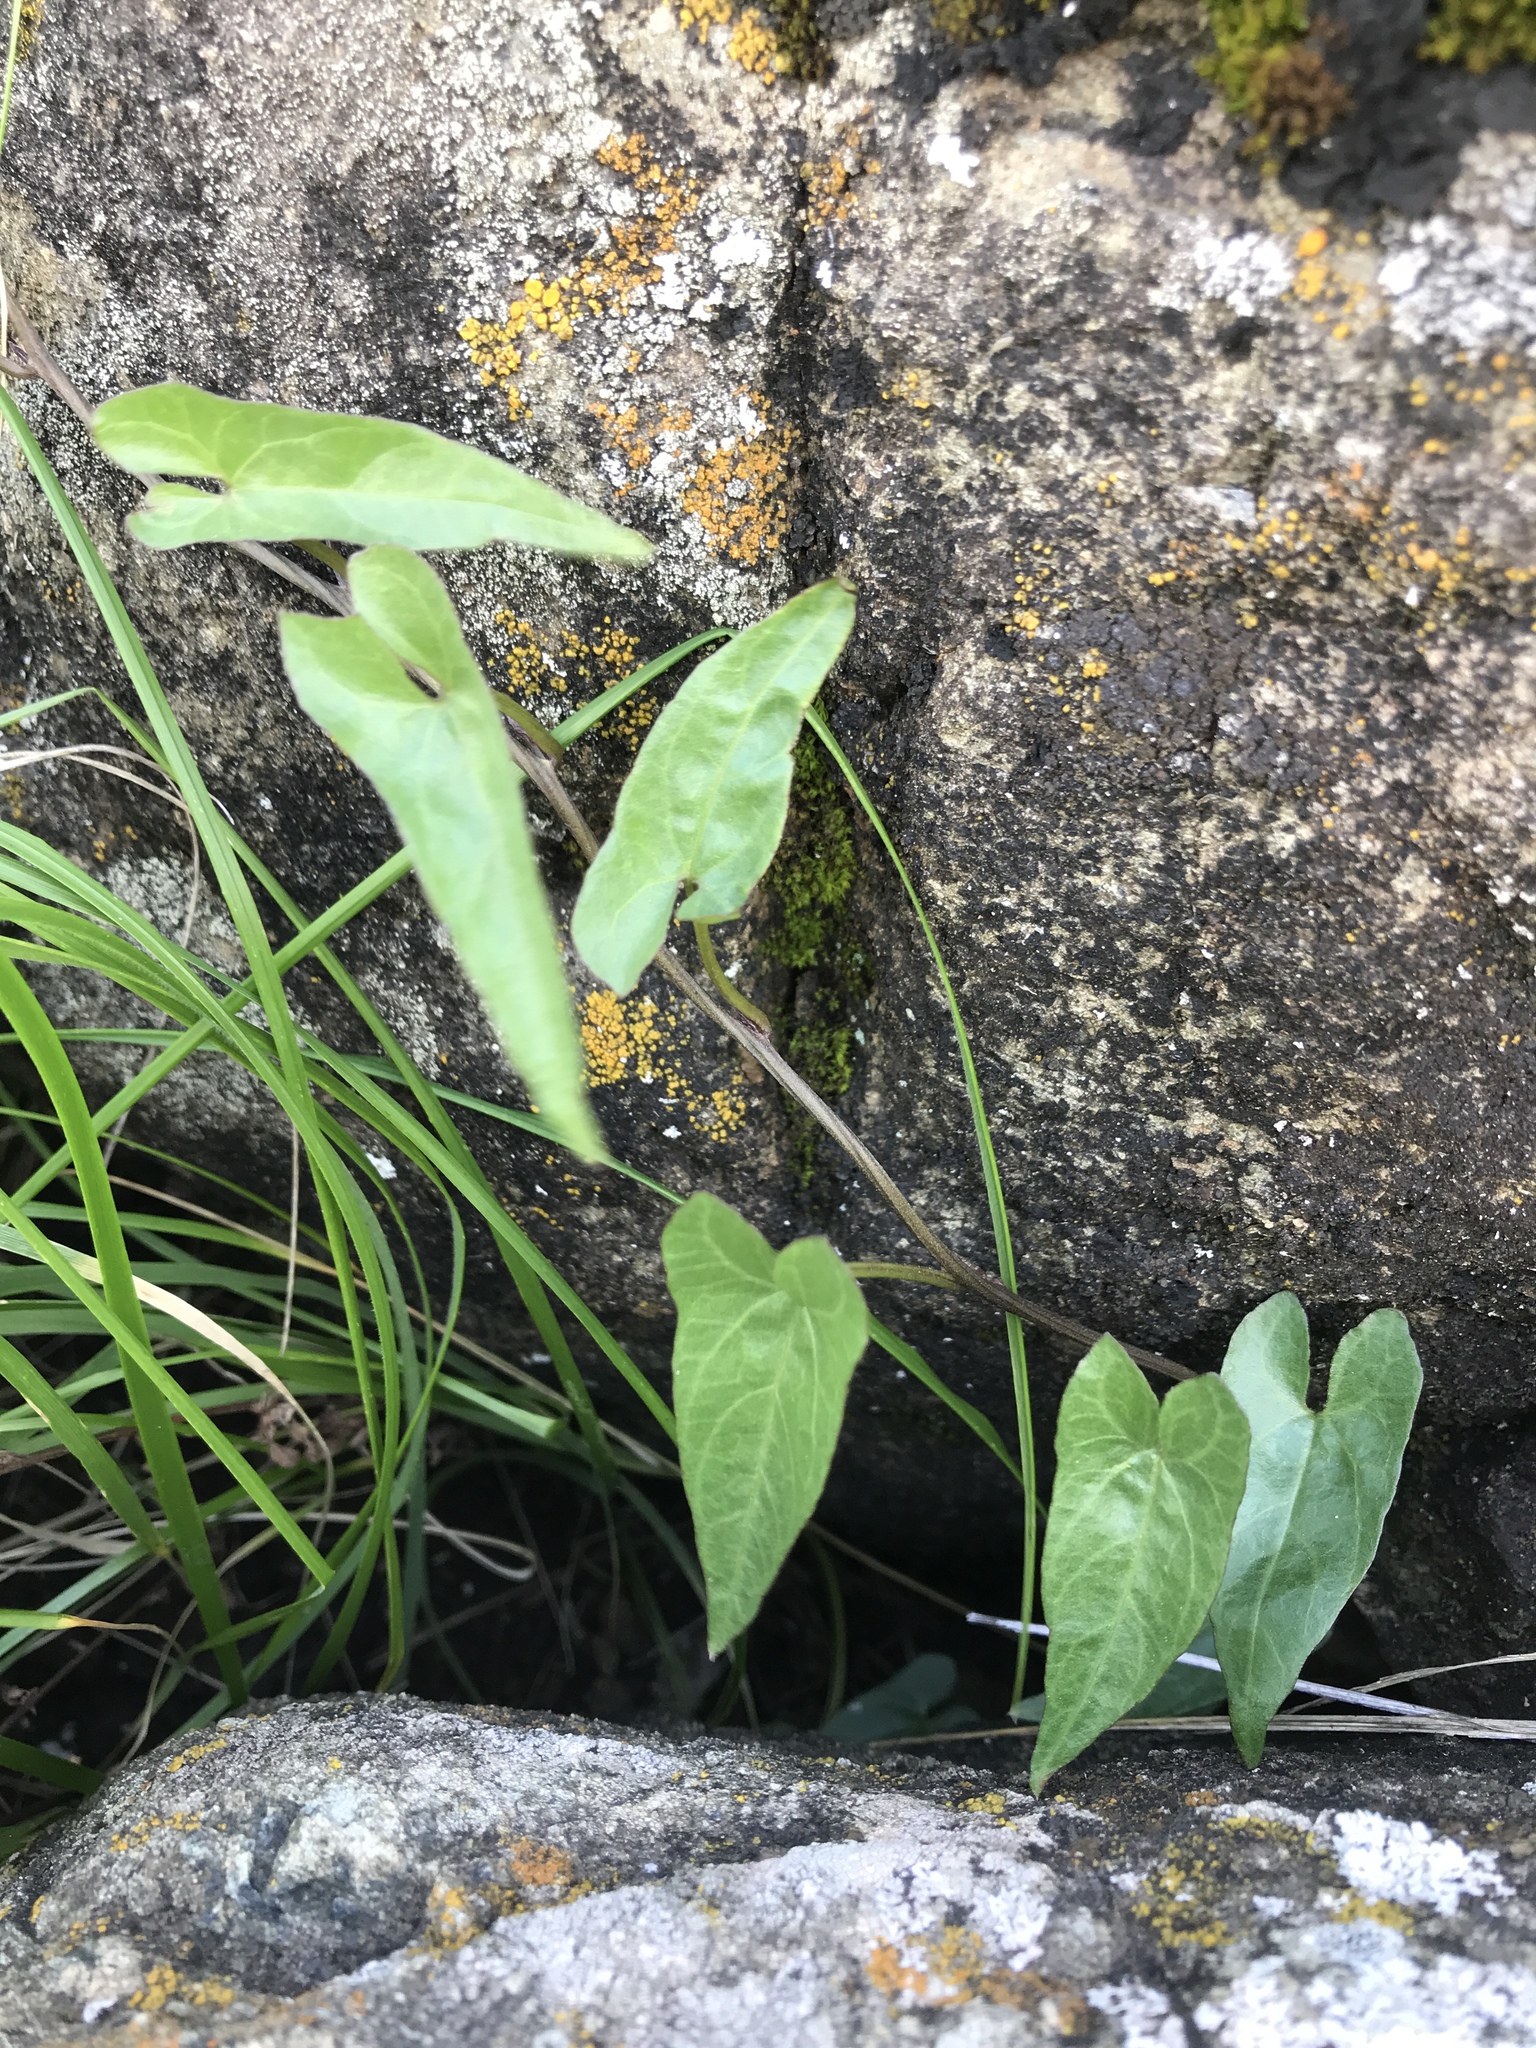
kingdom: Plantae
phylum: Tracheophyta
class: Magnoliopsida
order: Solanales
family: Convolvulaceae
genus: Calystegia
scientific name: Calystegia macrostegia
